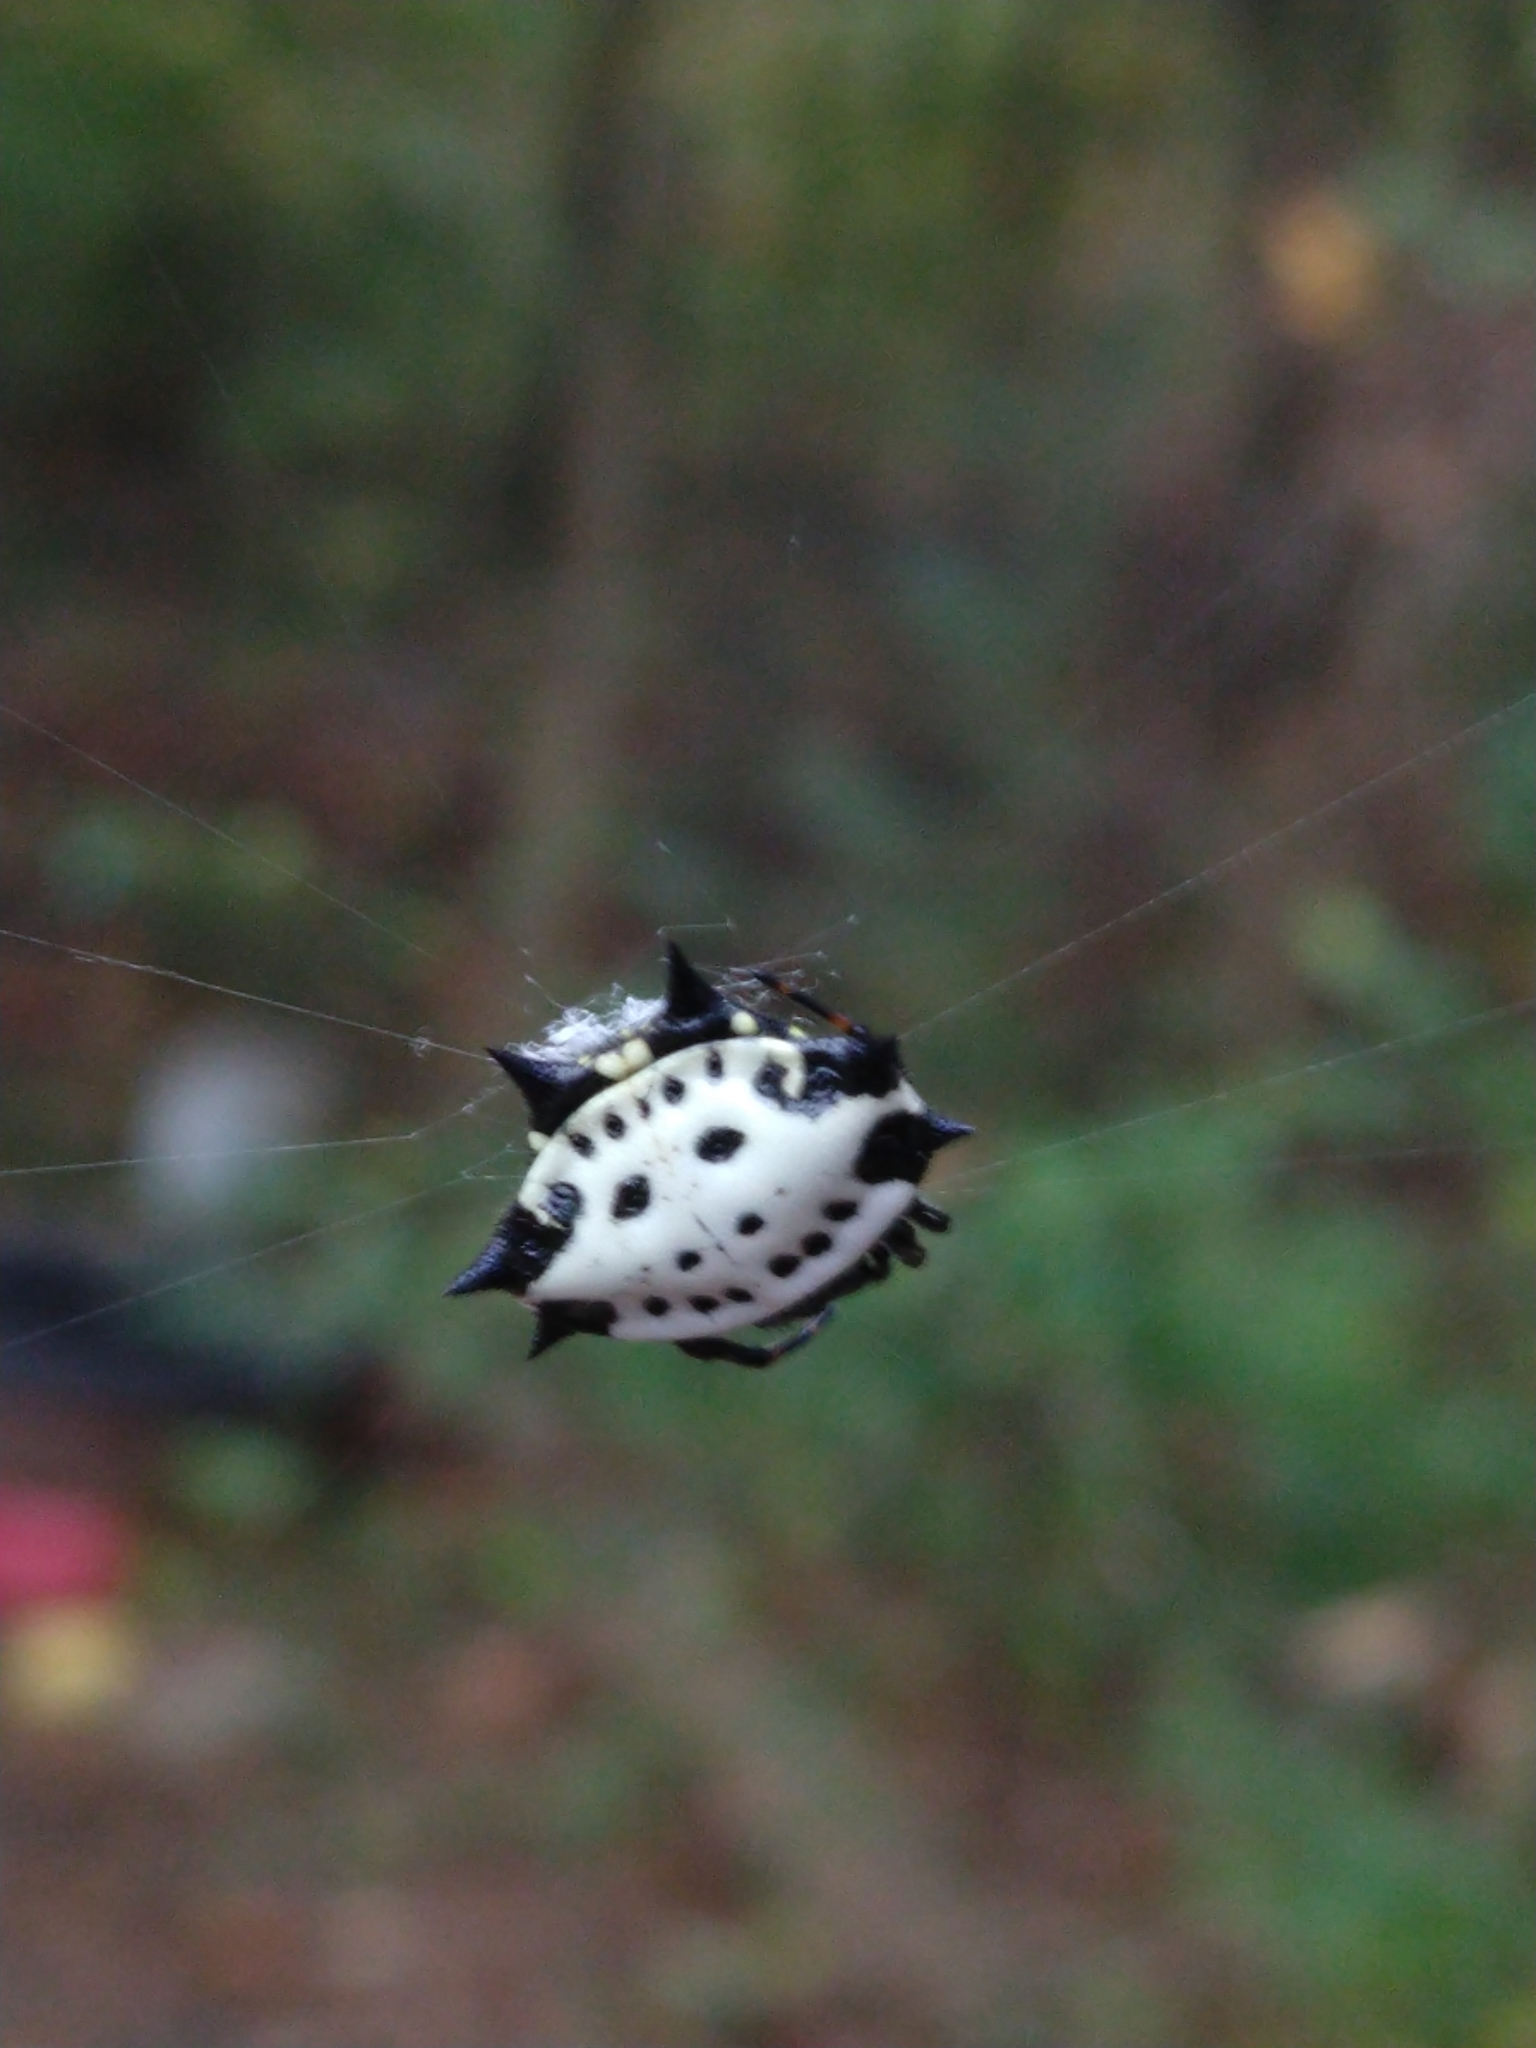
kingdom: Animalia
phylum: Arthropoda
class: Arachnida
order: Araneae
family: Araneidae
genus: Gasteracantha
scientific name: Gasteracantha cancriformis
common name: Orb weavers
